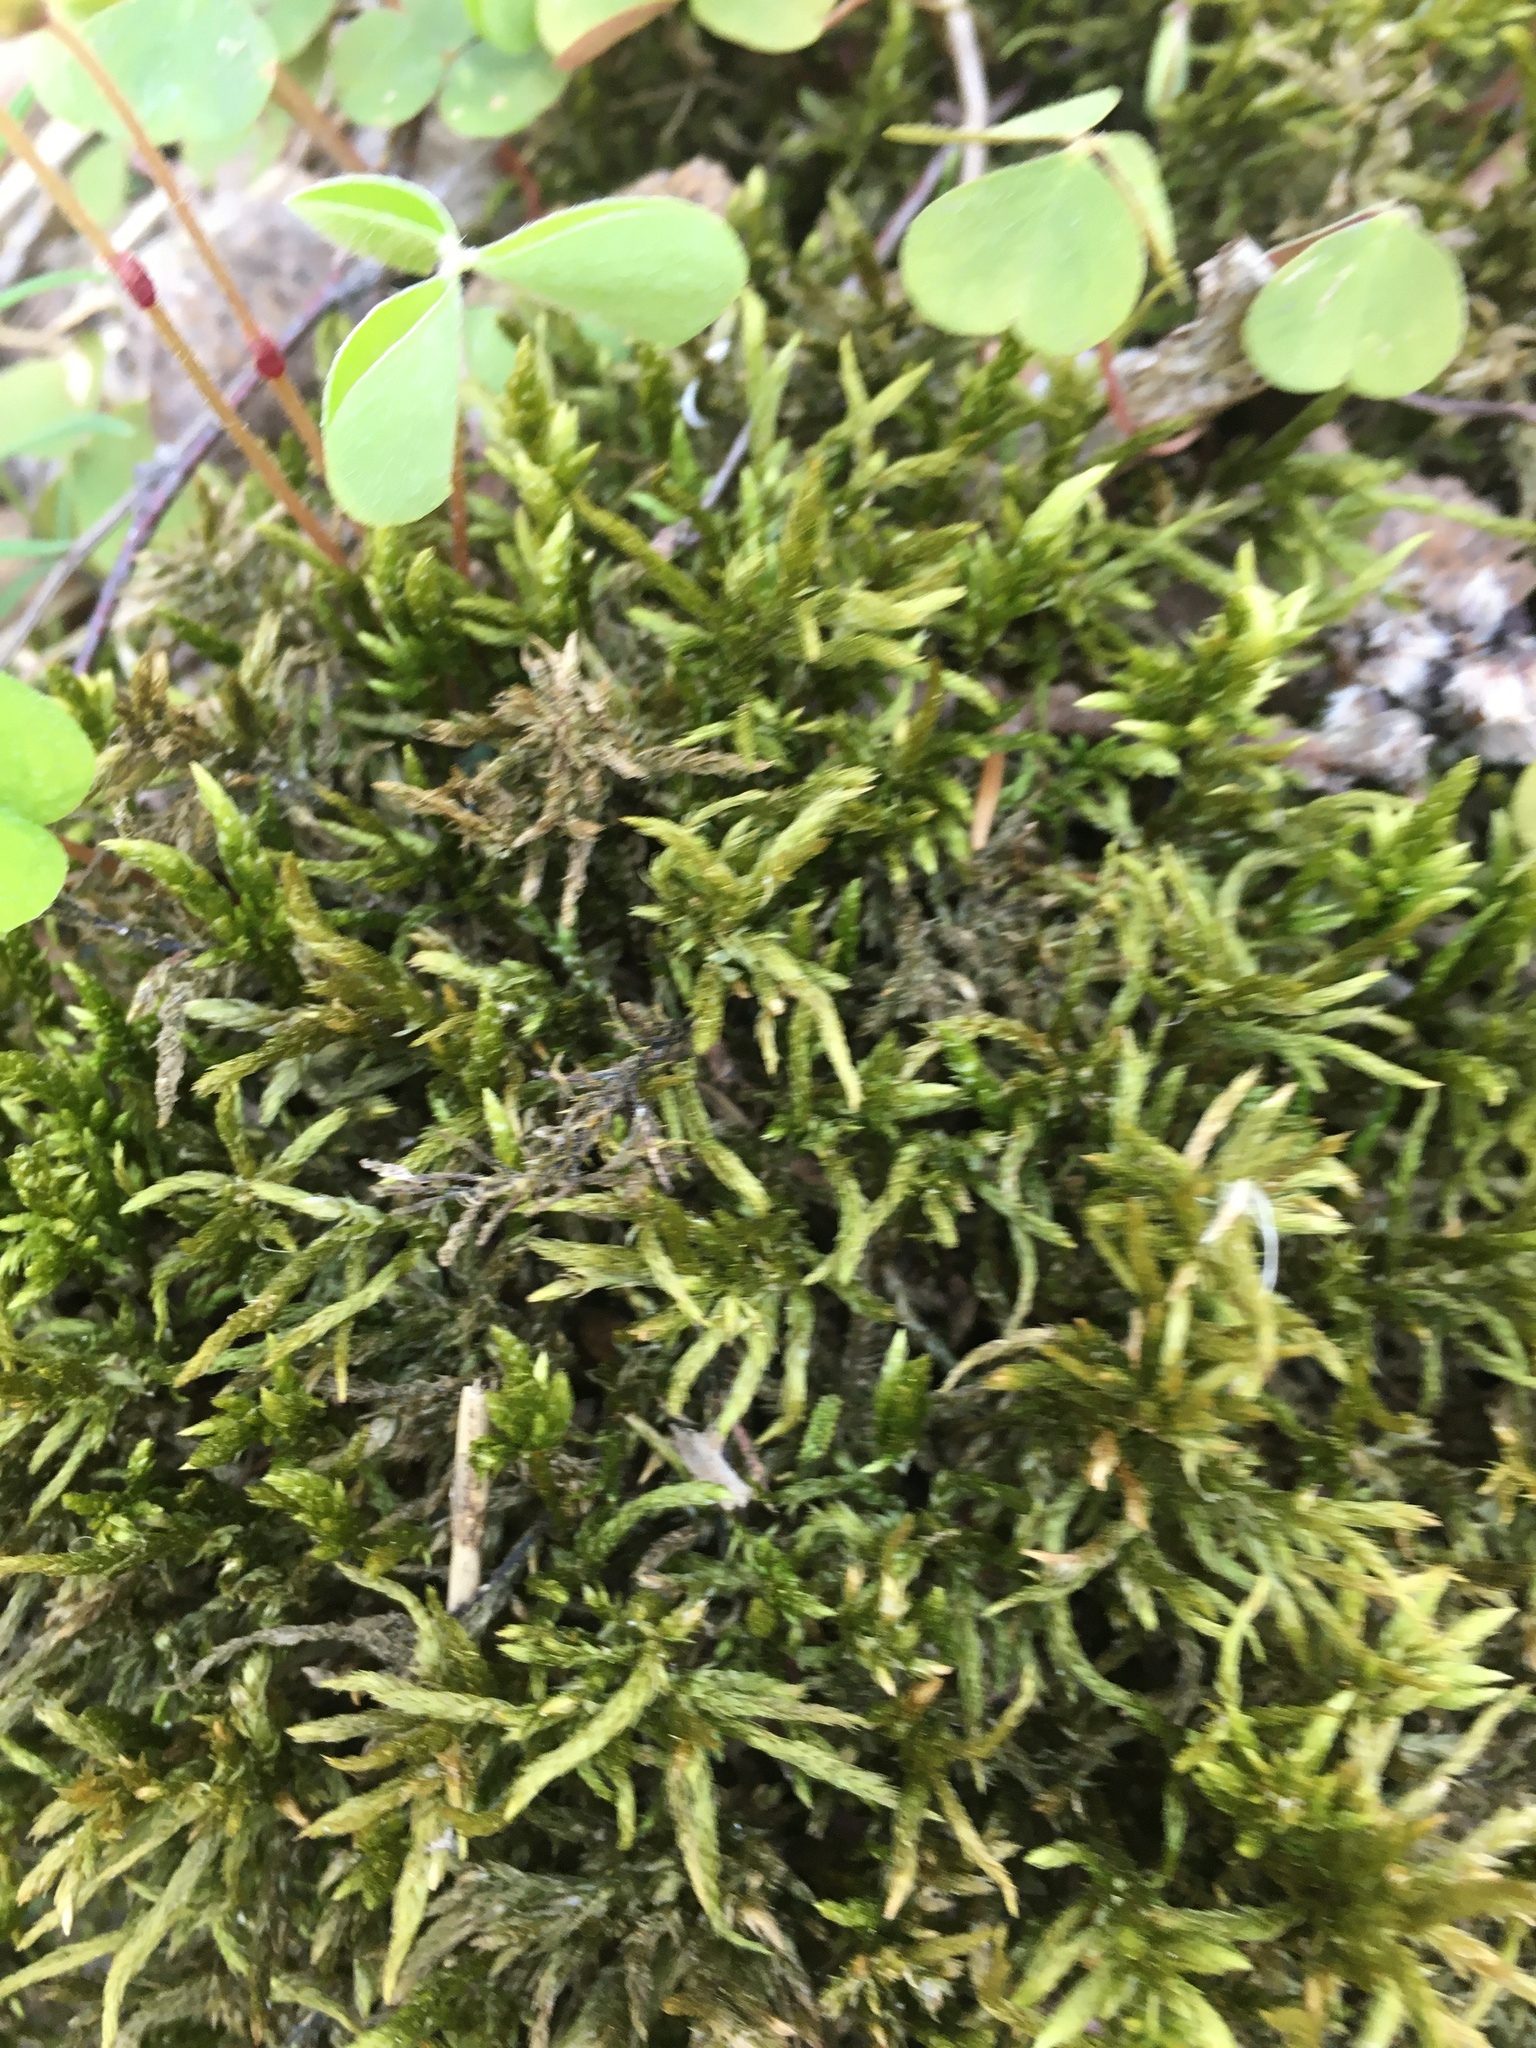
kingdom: Plantae
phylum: Bryophyta
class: Bryopsida
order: Hypnales
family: Hylocomiaceae
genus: Pleurozium
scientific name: Pleurozium schreberi
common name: Red-stemmed feather moss
